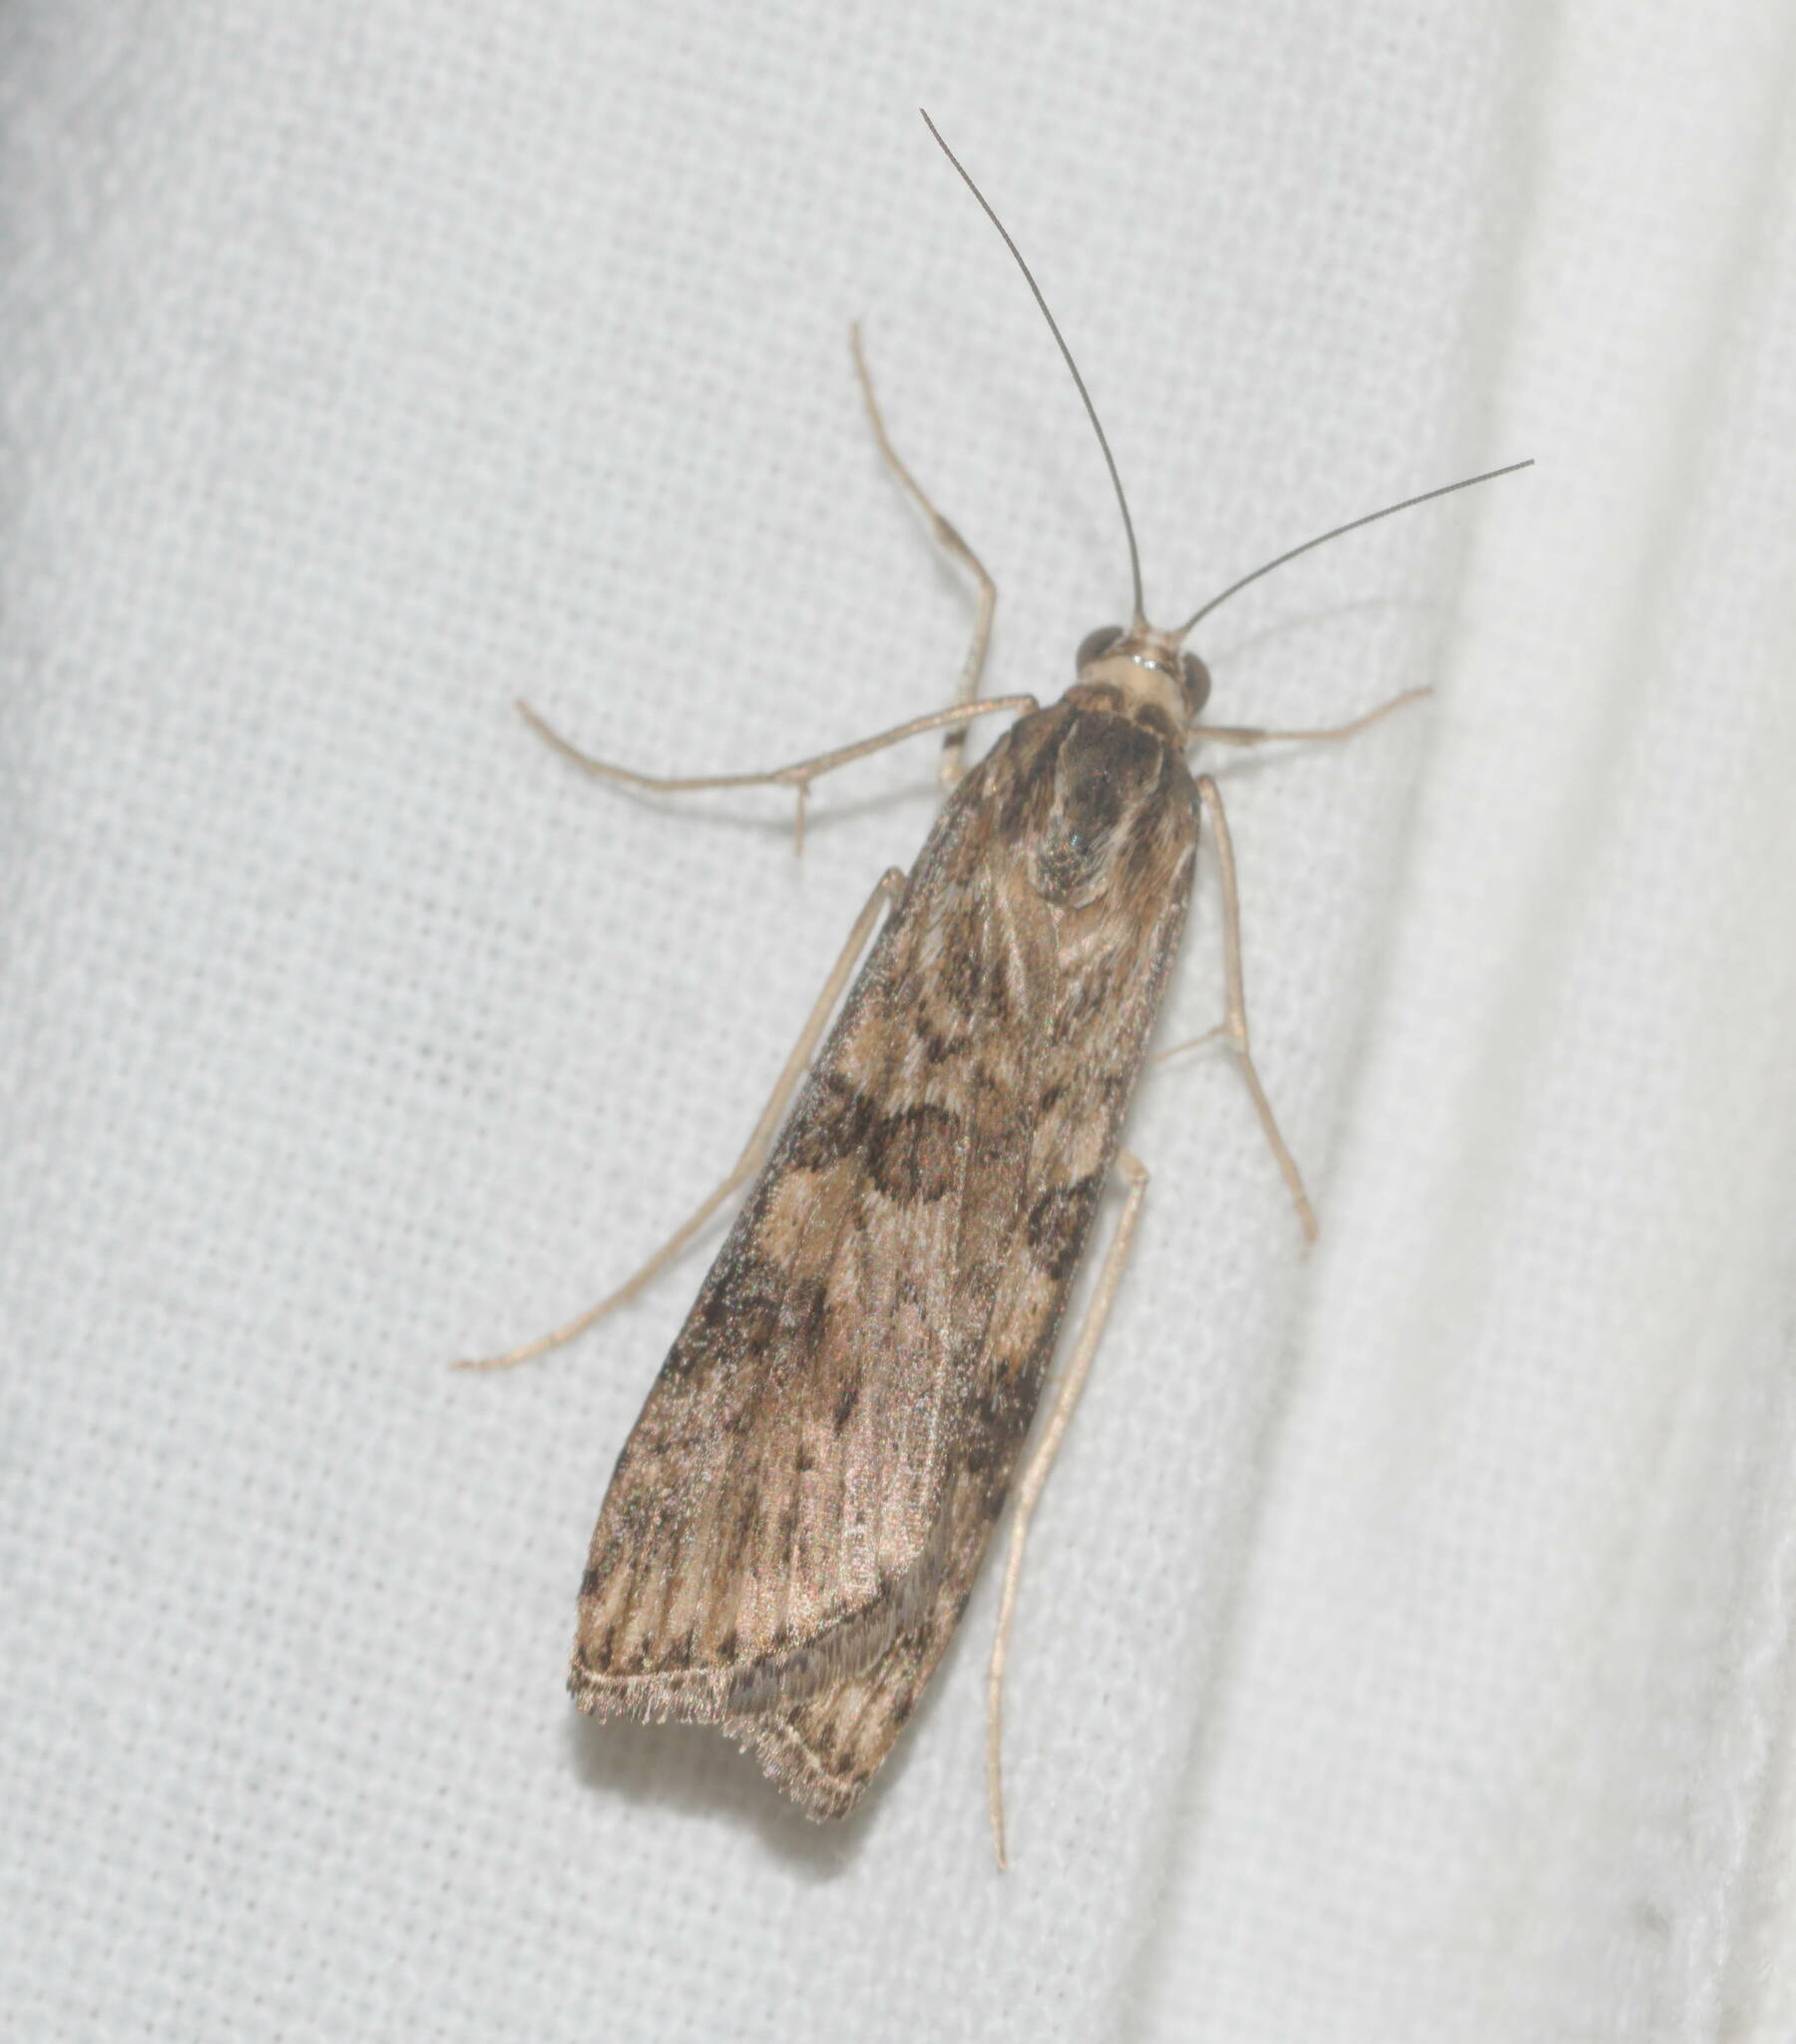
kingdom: Animalia
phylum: Arthropoda
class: Insecta
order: Lepidoptera
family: Crambidae
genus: Nomophila
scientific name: Nomophila noctuella
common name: Rush veneer
